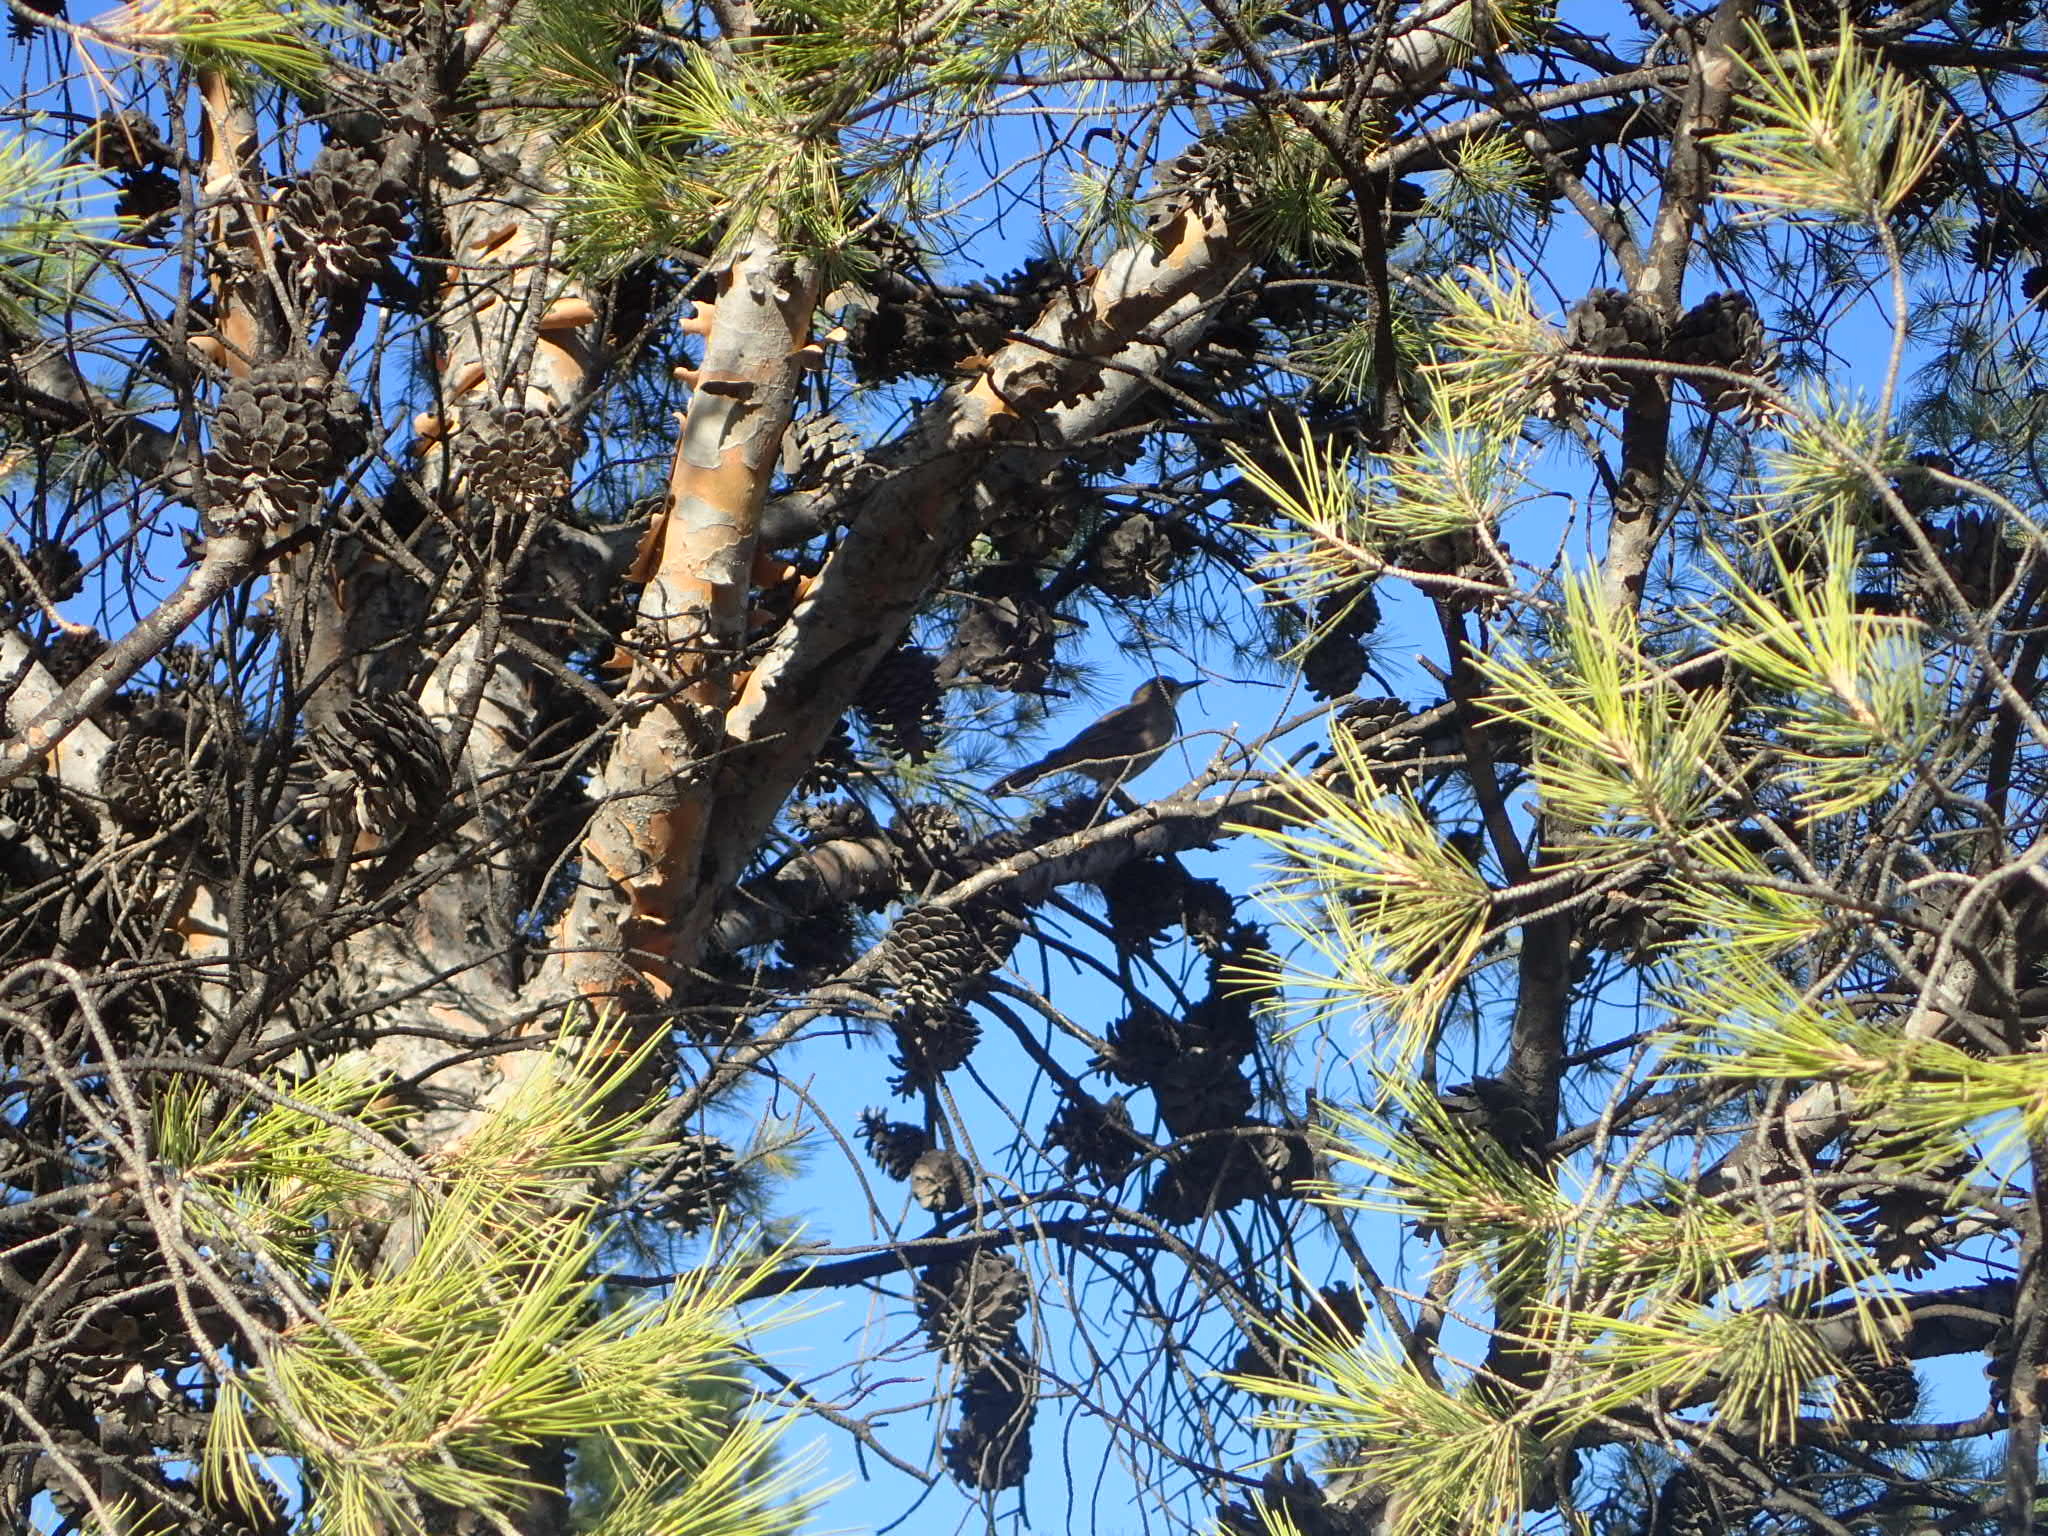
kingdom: Animalia
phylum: Chordata
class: Aves
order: Passeriformes
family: Furnariidae
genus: Pseudoseisura
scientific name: Pseudoseisura gutturalis
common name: White-throated cacholote
